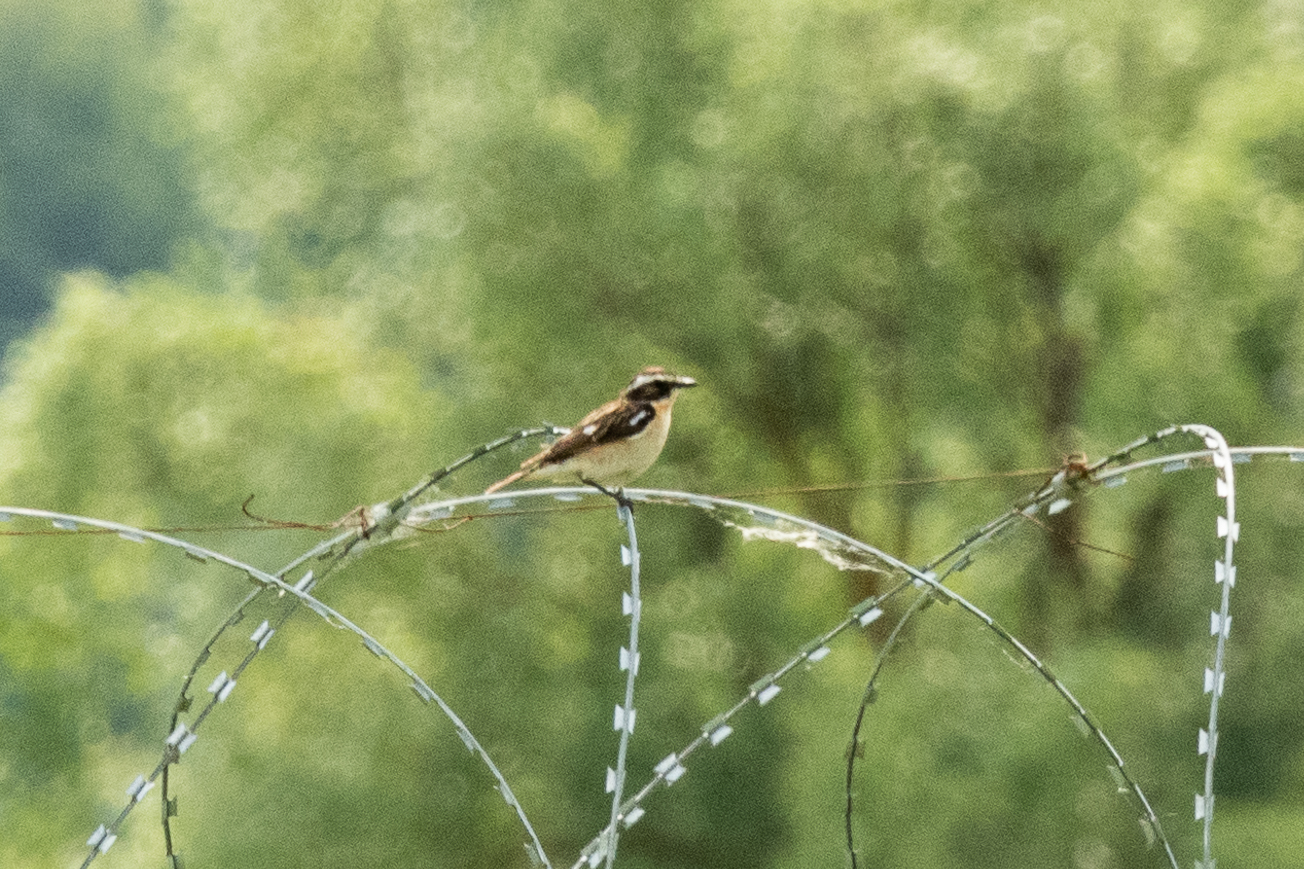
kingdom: Animalia
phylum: Chordata
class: Aves
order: Passeriformes
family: Muscicapidae
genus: Saxicola
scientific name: Saxicola rubetra
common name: Whinchat
